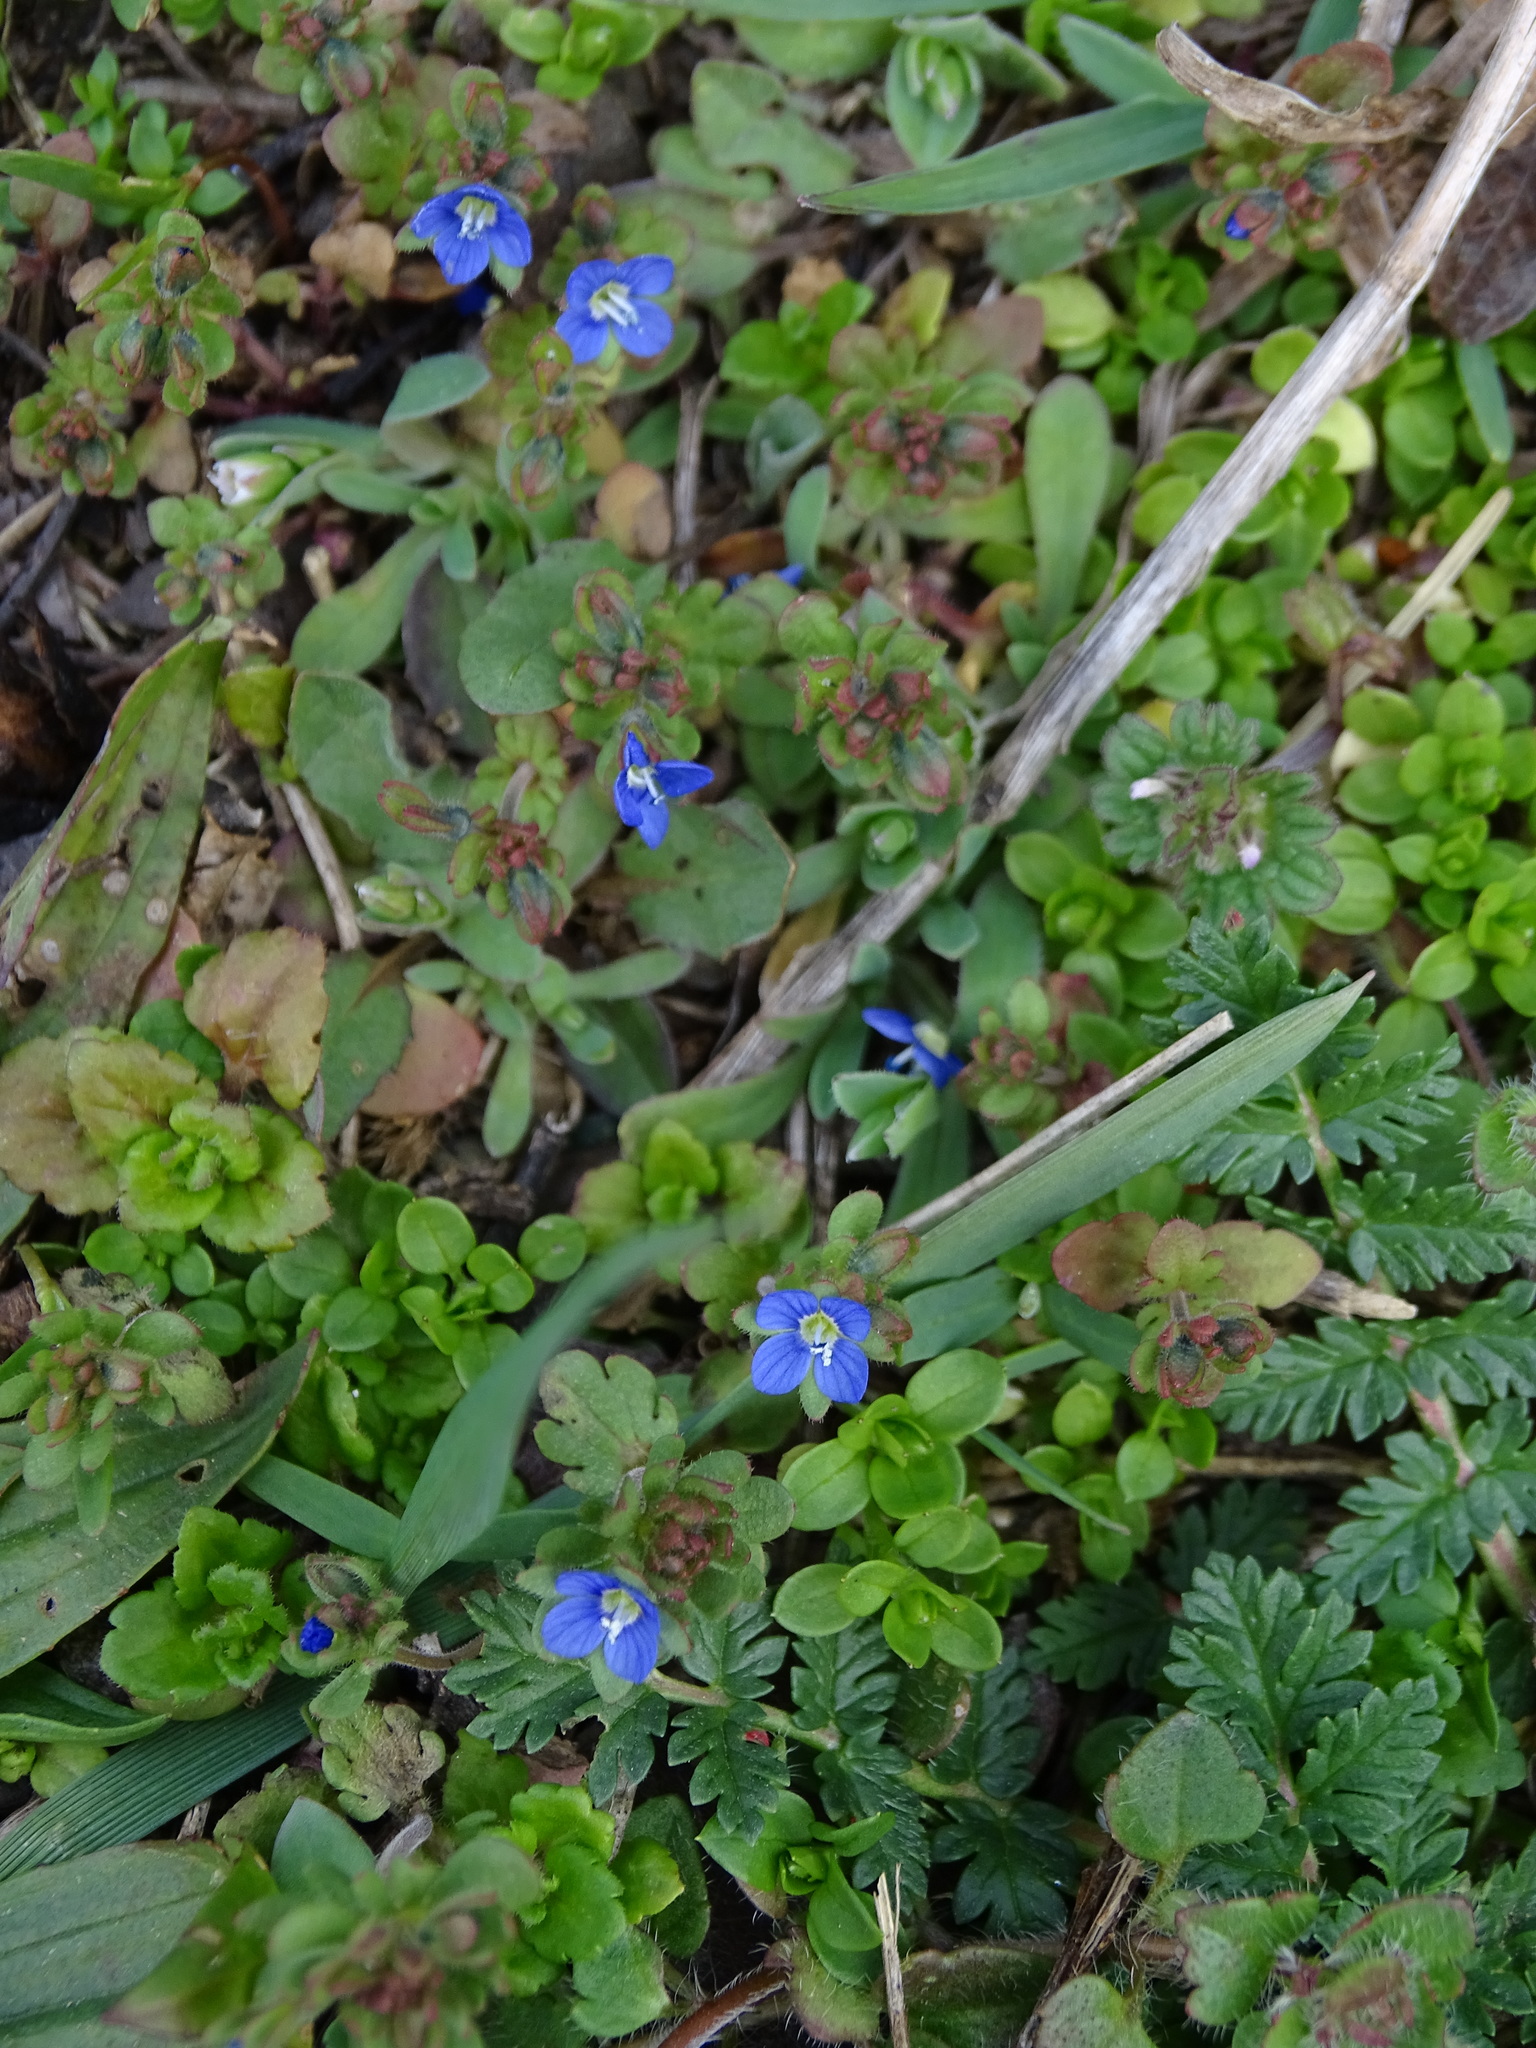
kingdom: Plantae
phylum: Tracheophyta
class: Magnoliopsida
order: Lamiales
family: Plantaginaceae
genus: Veronica
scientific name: Veronica triphyllos
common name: Fingered speedwell
